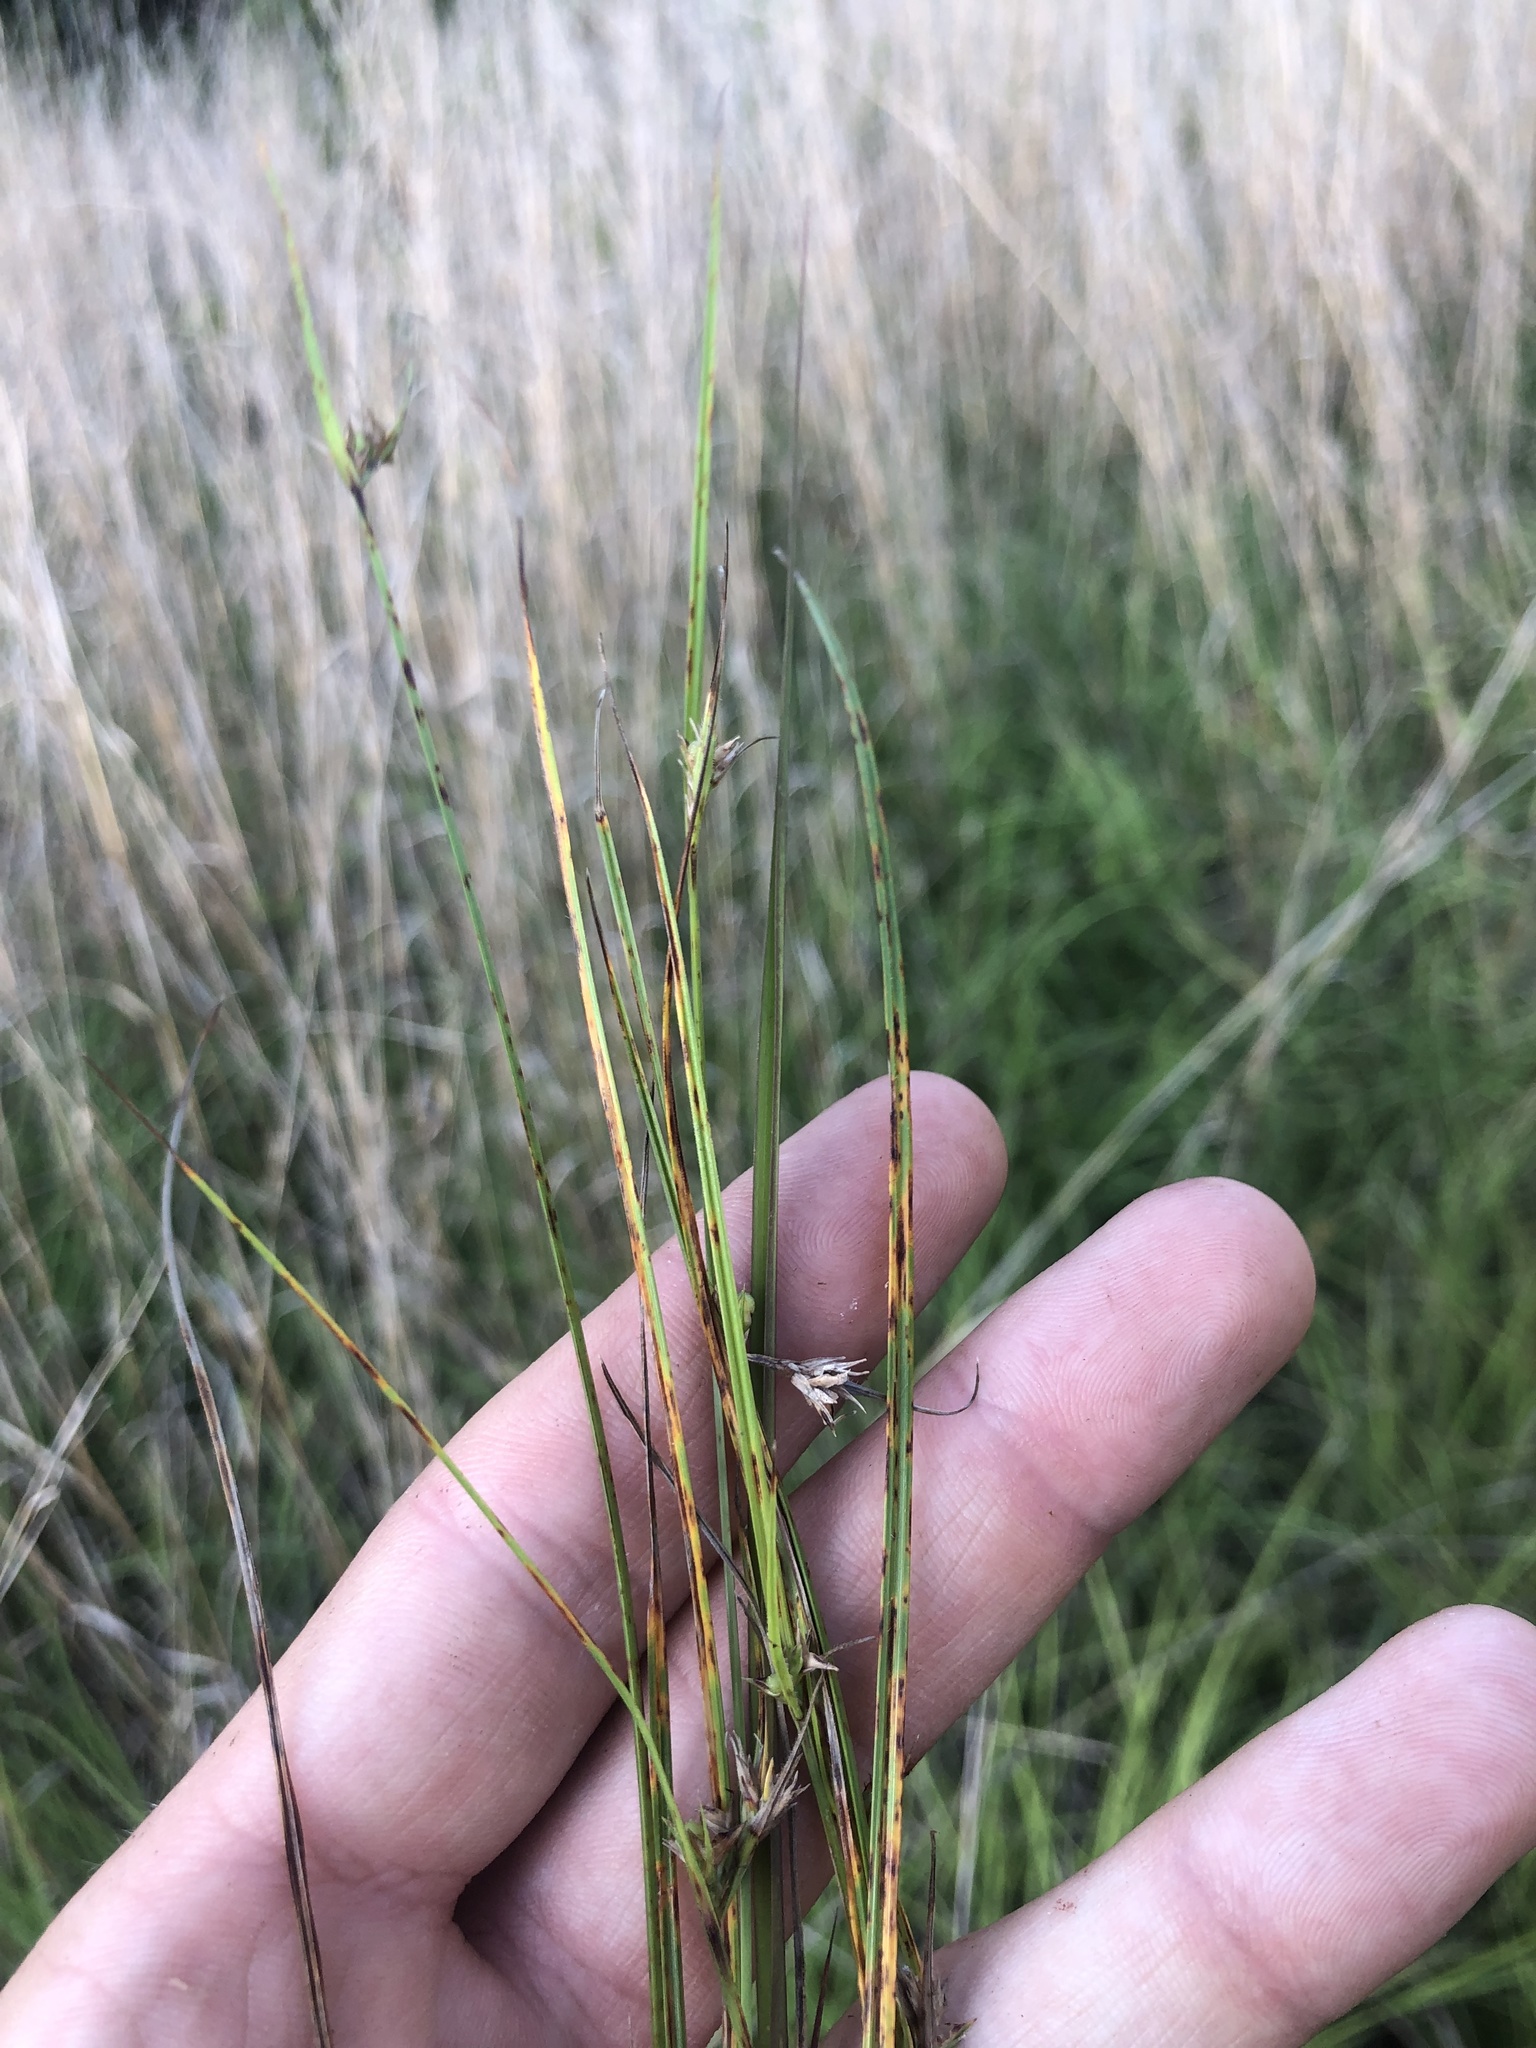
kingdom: Plantae
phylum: Tracheophyta
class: Liliopsida
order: Poales
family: Cyperaceae
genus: Scleria
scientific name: Scleria ciliata
